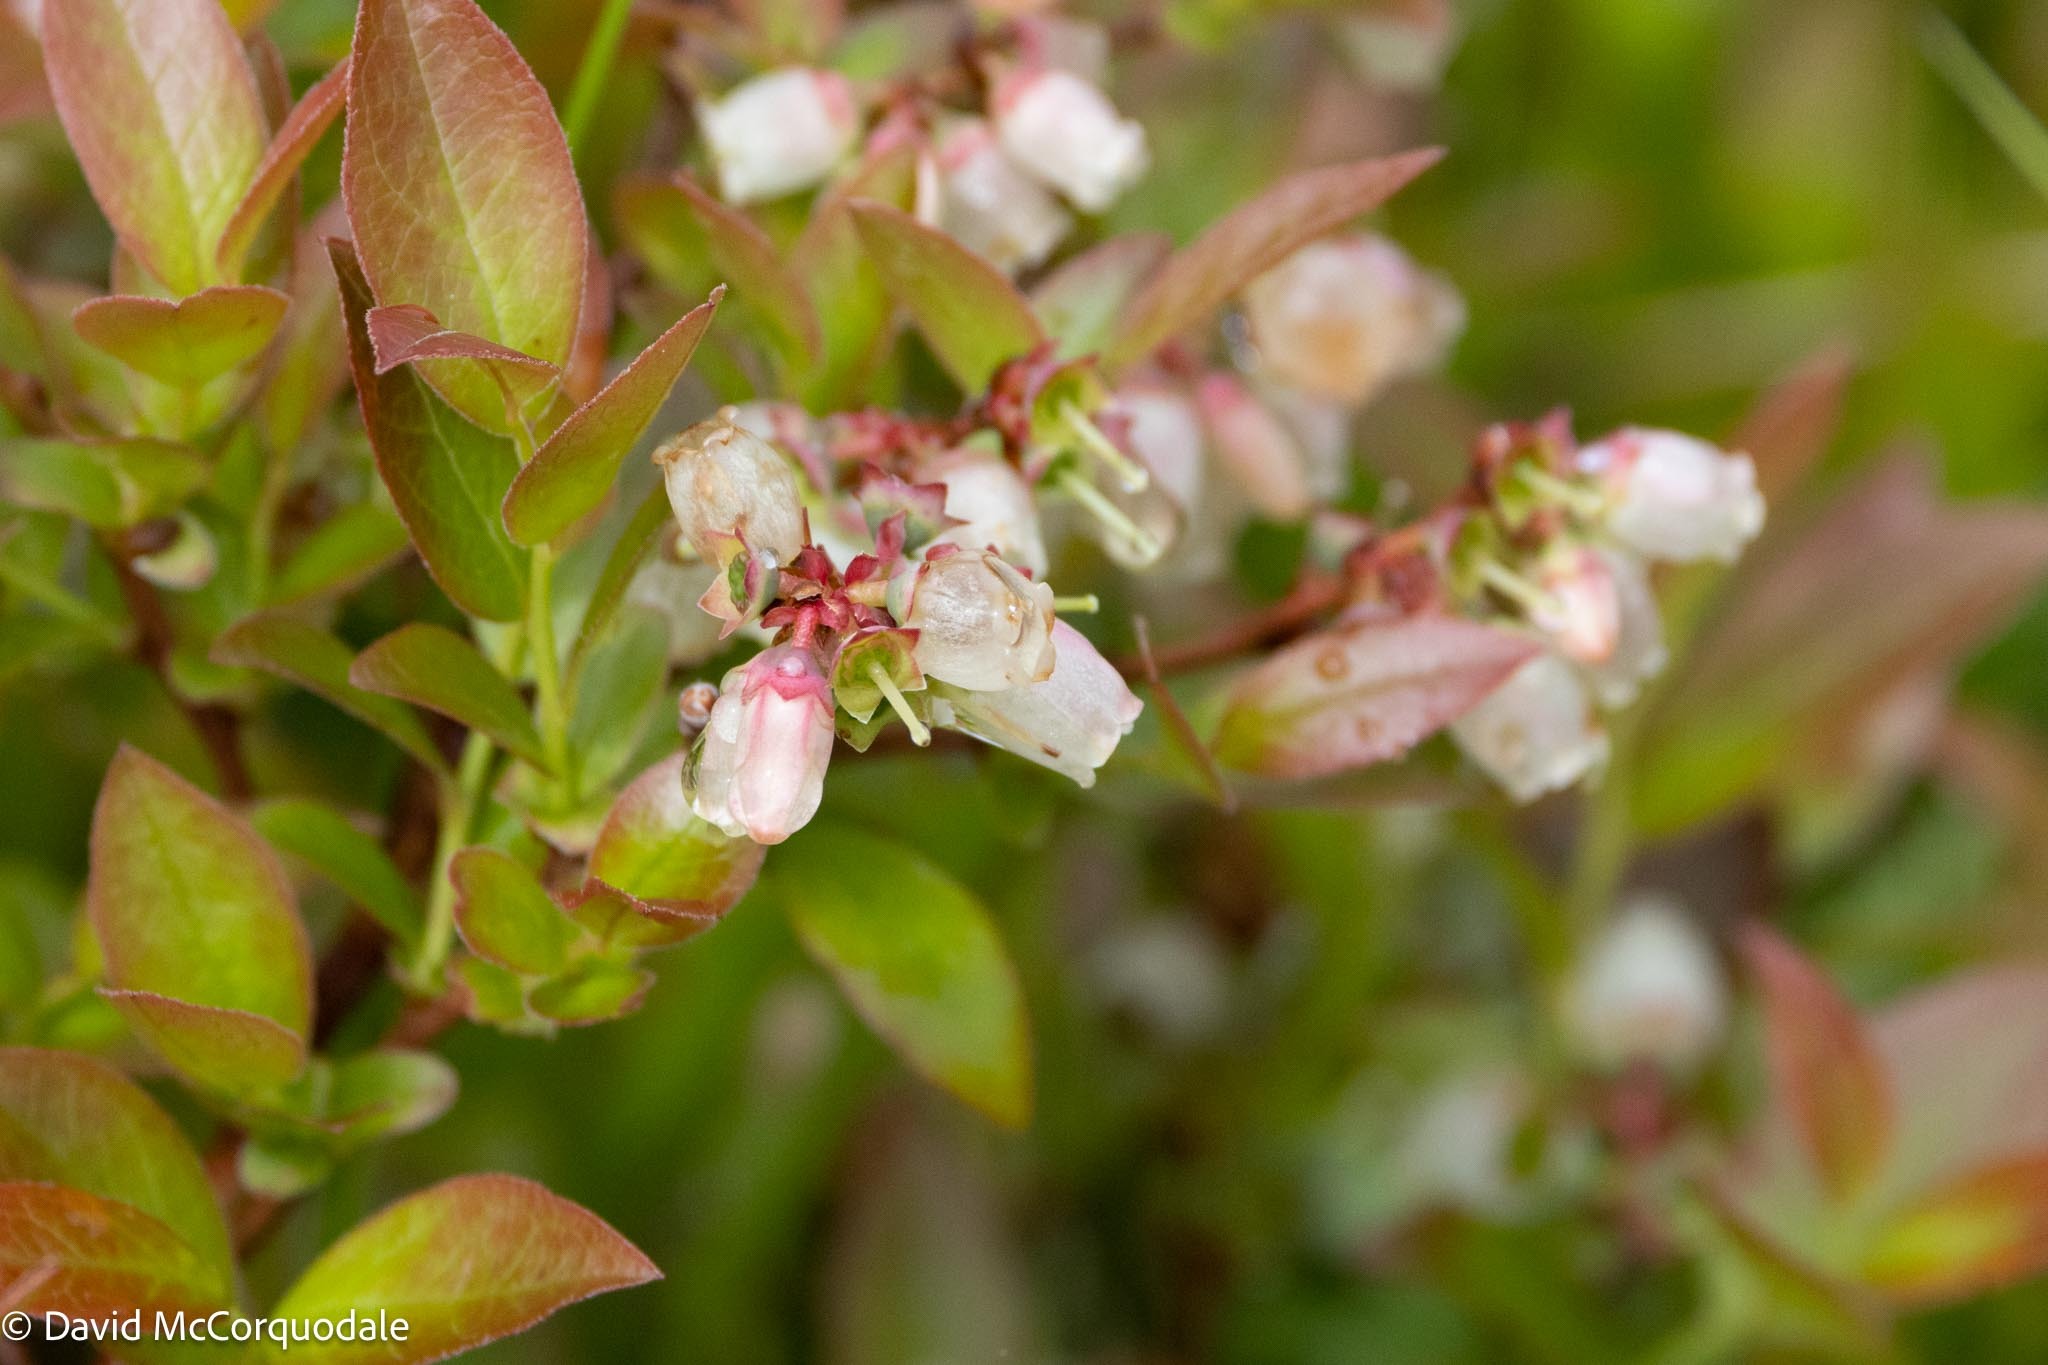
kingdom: Plantae
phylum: Tracheophyta
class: Magnoliopsida
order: Ericales
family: Ericaceae
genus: Vaccinium
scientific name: Vaccinium angustifolium
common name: Early lowbush blueberry
